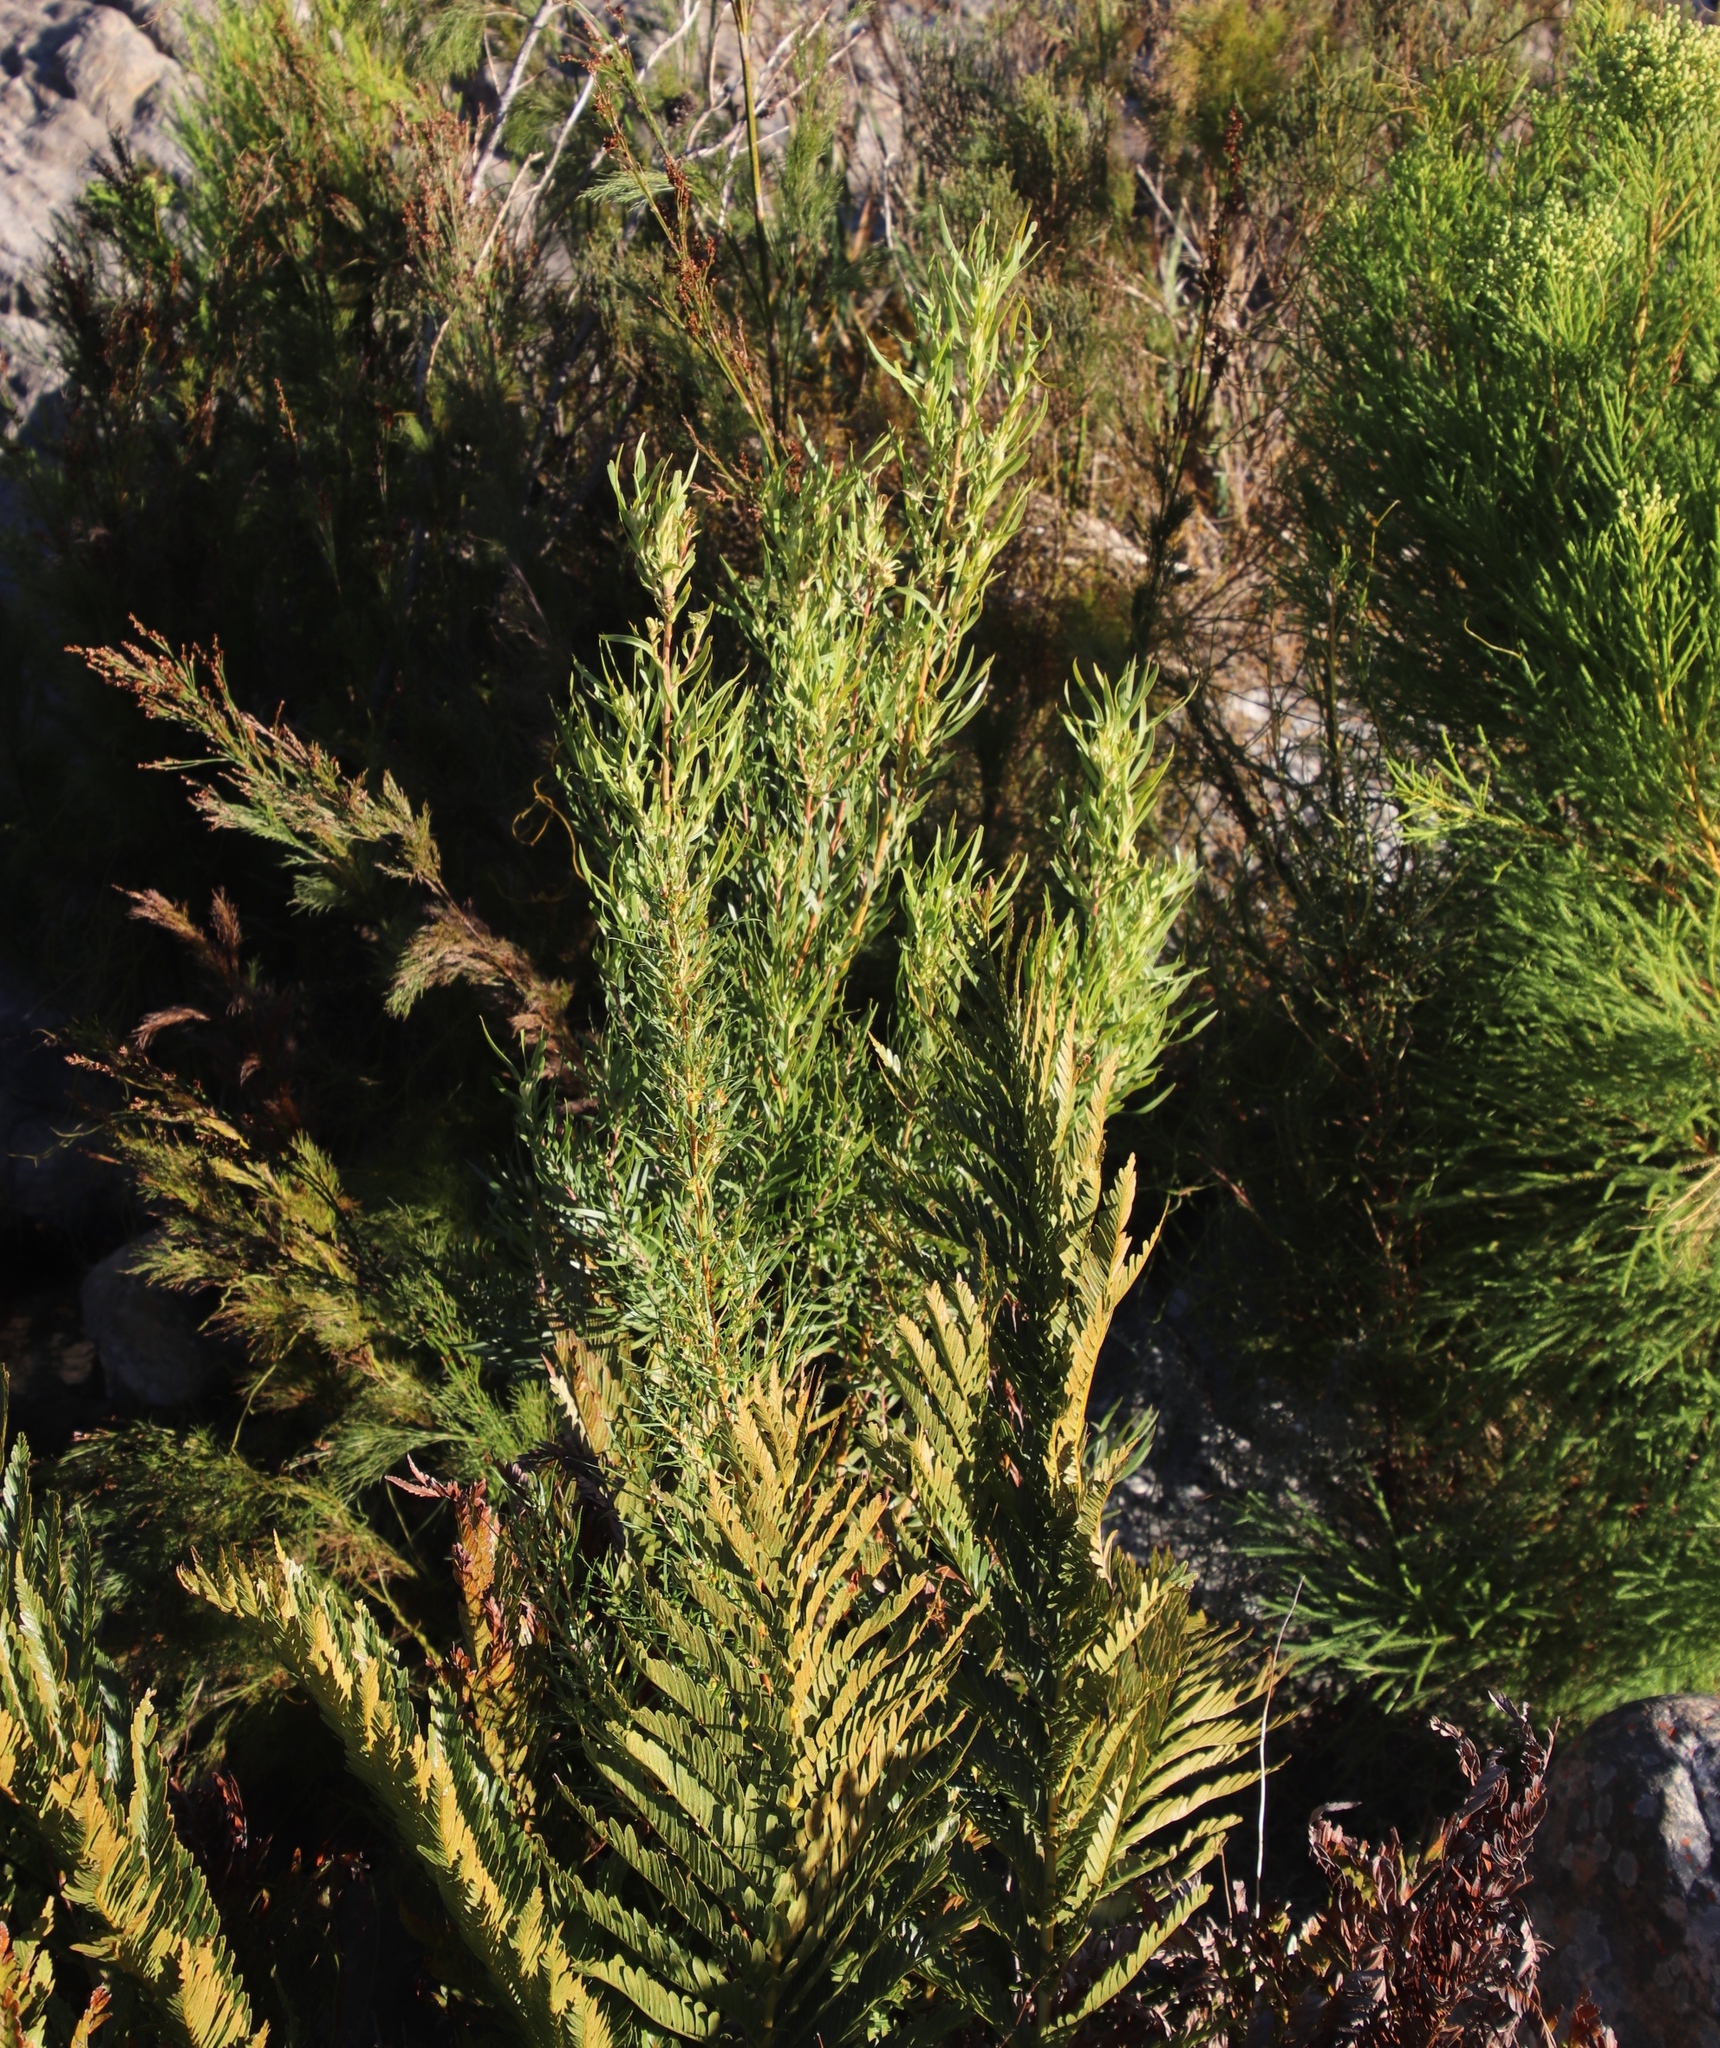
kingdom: Plantae
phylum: Tracheophyta
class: Magnoliopsida
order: Proteales
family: Proteaceae
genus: Leucadendron
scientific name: Leucadendron salicifolium
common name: Common stream conebush
